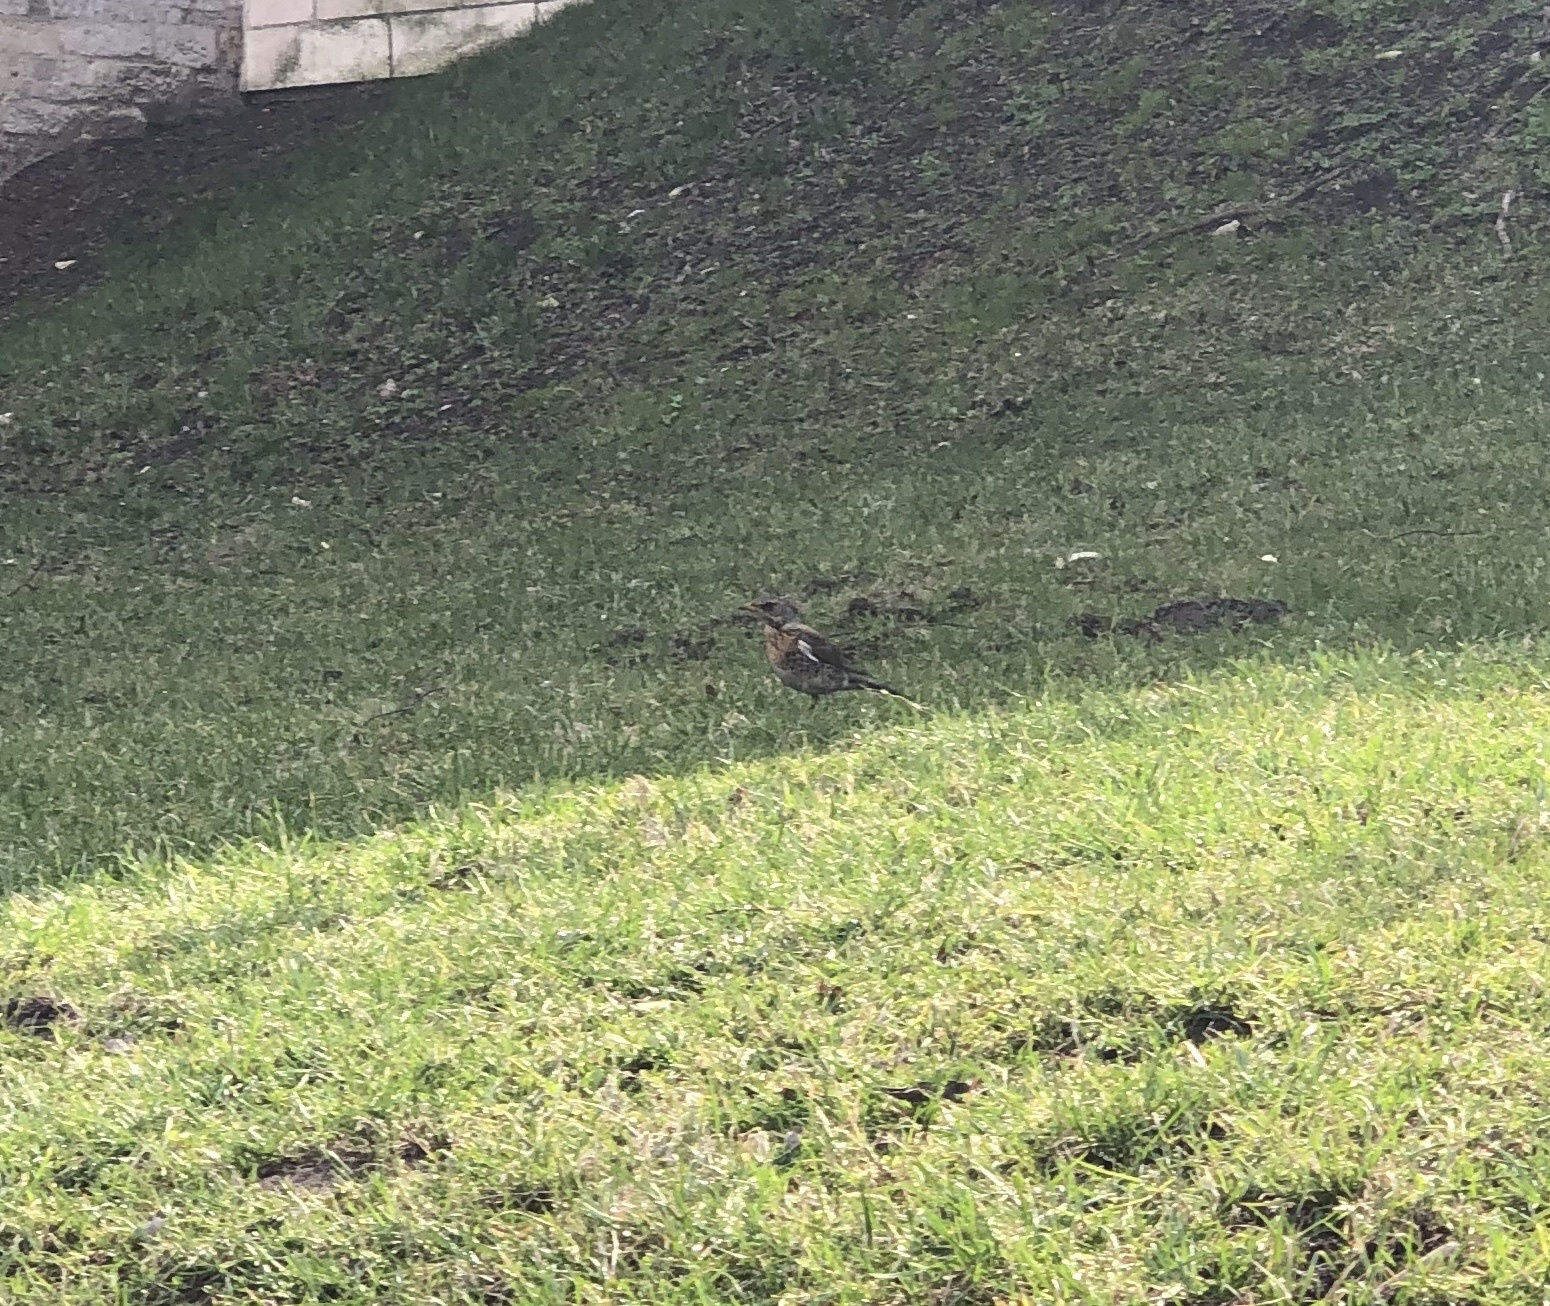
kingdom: Animalia
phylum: Chordata
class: Aves
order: Passeriformes
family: Turdidae
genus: Turdus
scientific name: Turdus pilaris
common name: Fieldfare
